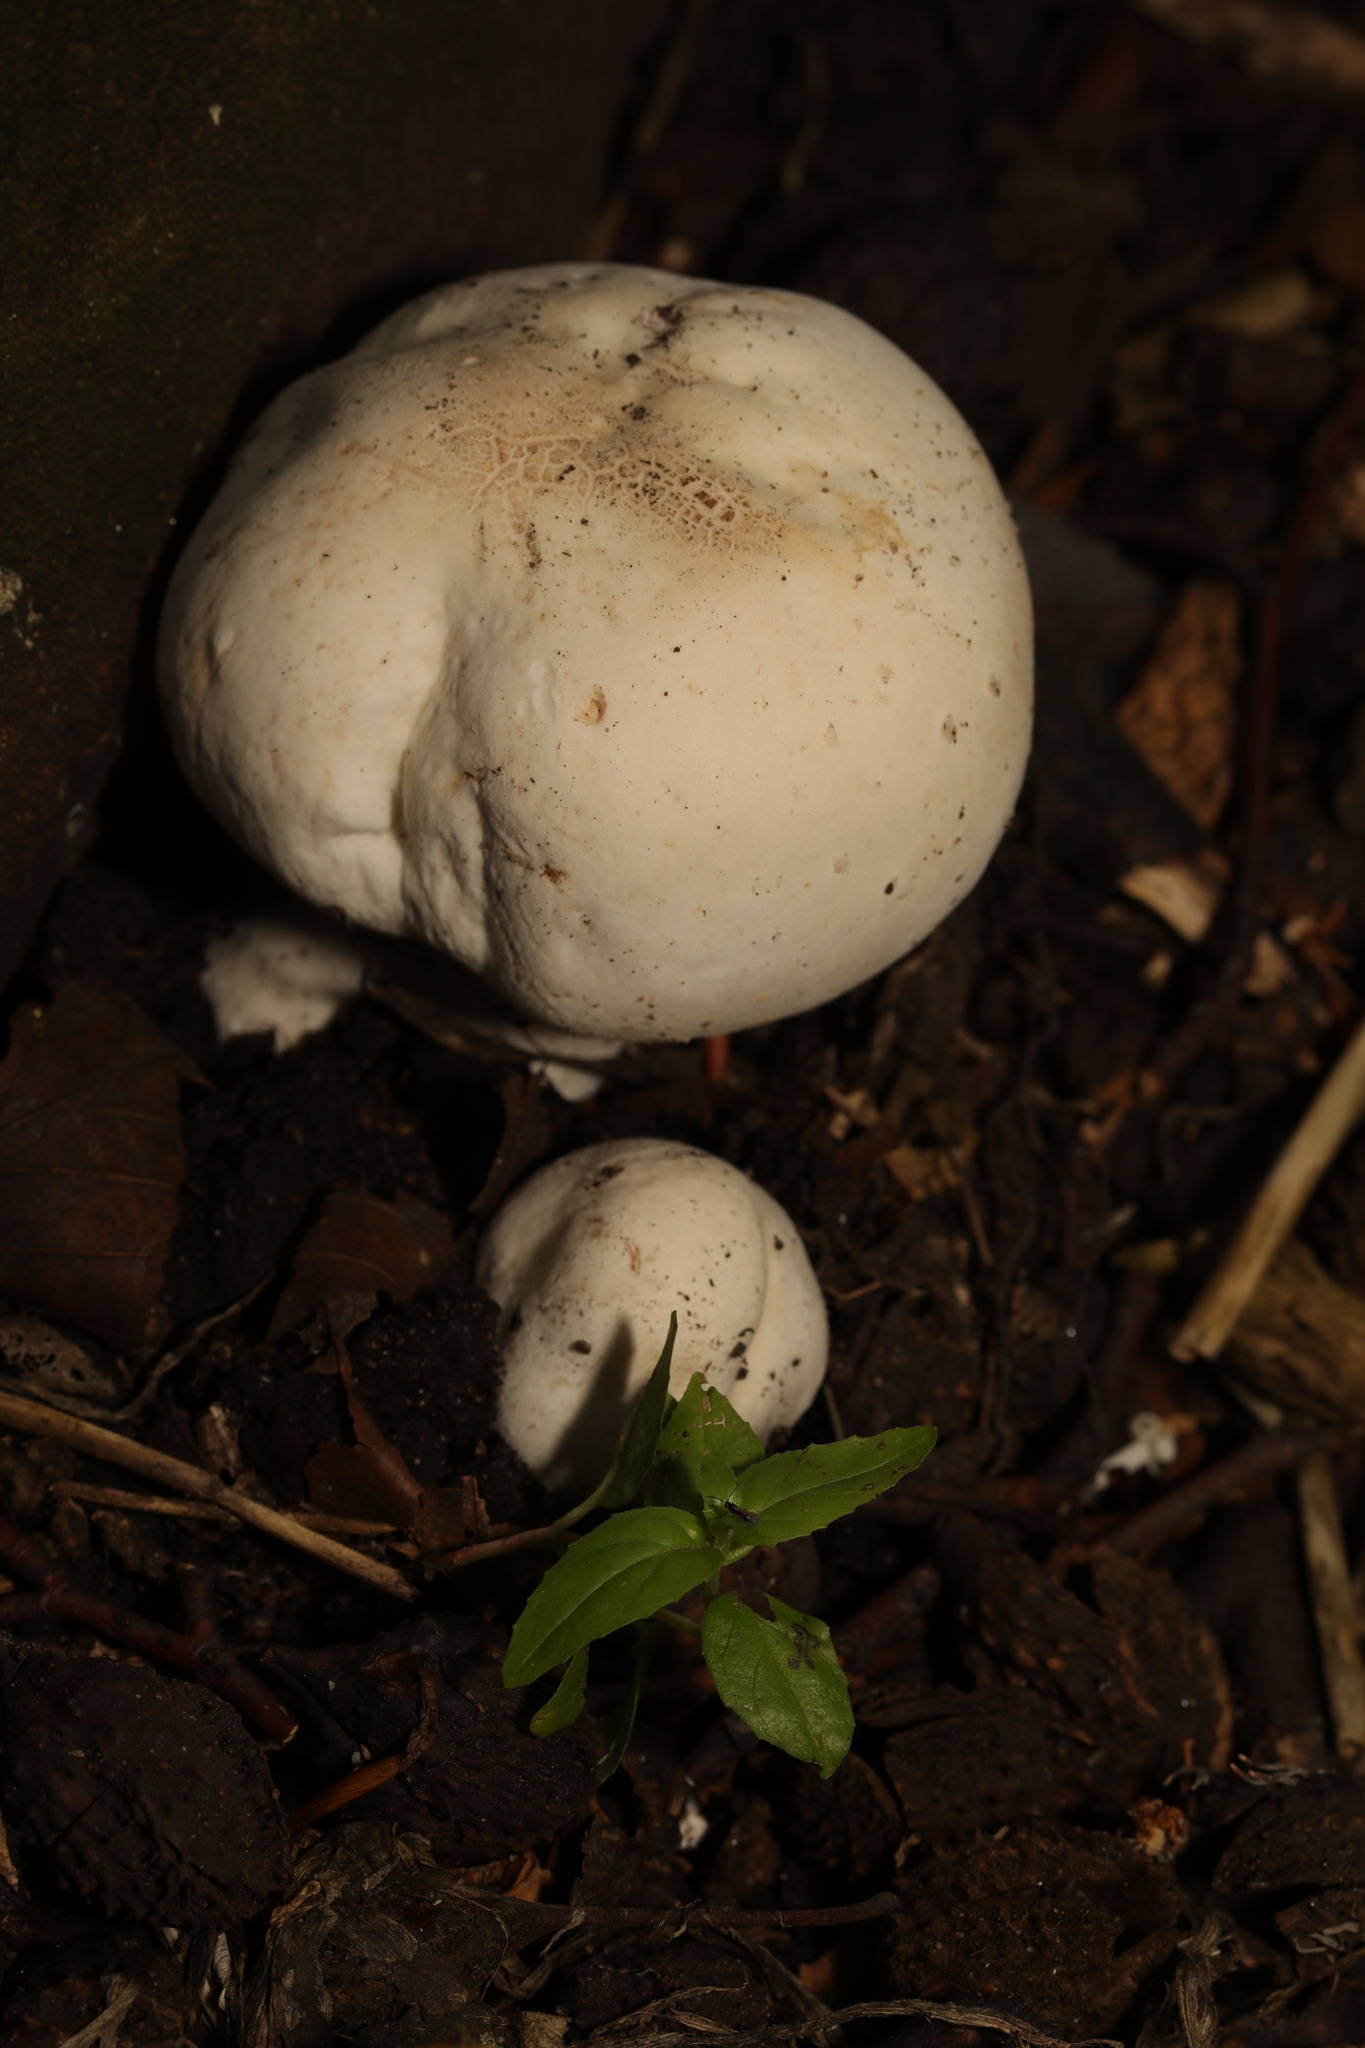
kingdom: Fungi
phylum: Basidiomycota
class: Agaricomycetes
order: Agaricales
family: Agaricaceae
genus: Agaricus
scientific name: Agaricus xanthodermus
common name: Yellow stainer
